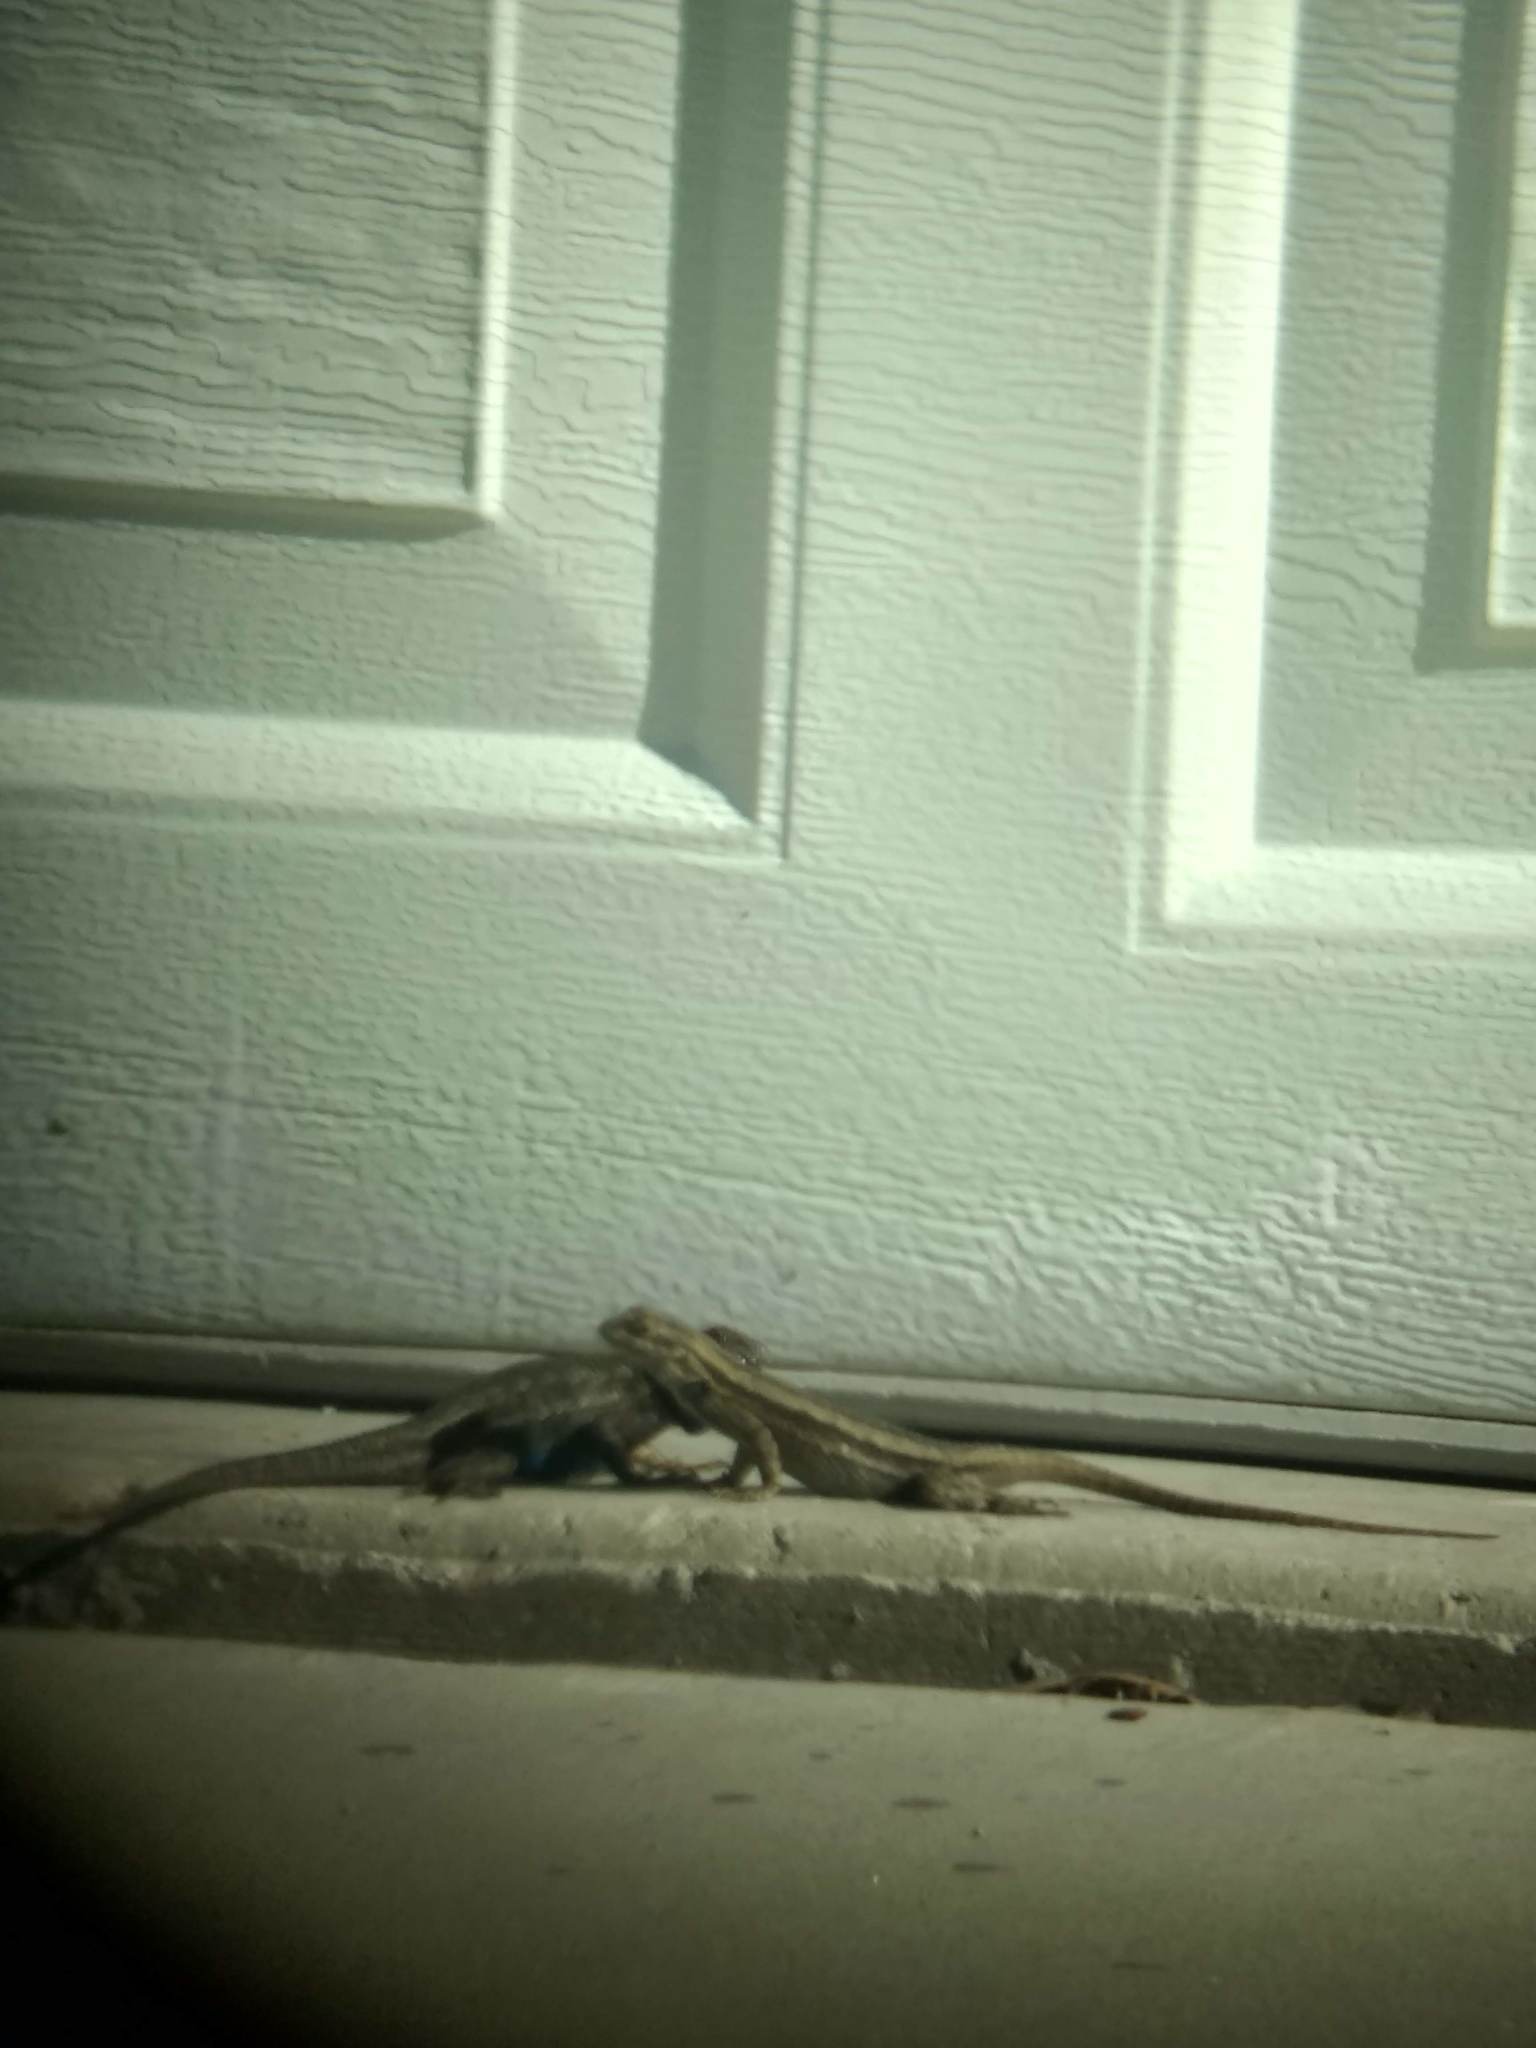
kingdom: Animalia
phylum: Chordata
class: Squamata
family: Phrynosomatidae
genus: Sceloporus
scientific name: Sceloporus occidentalis
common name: Western fence lizard
